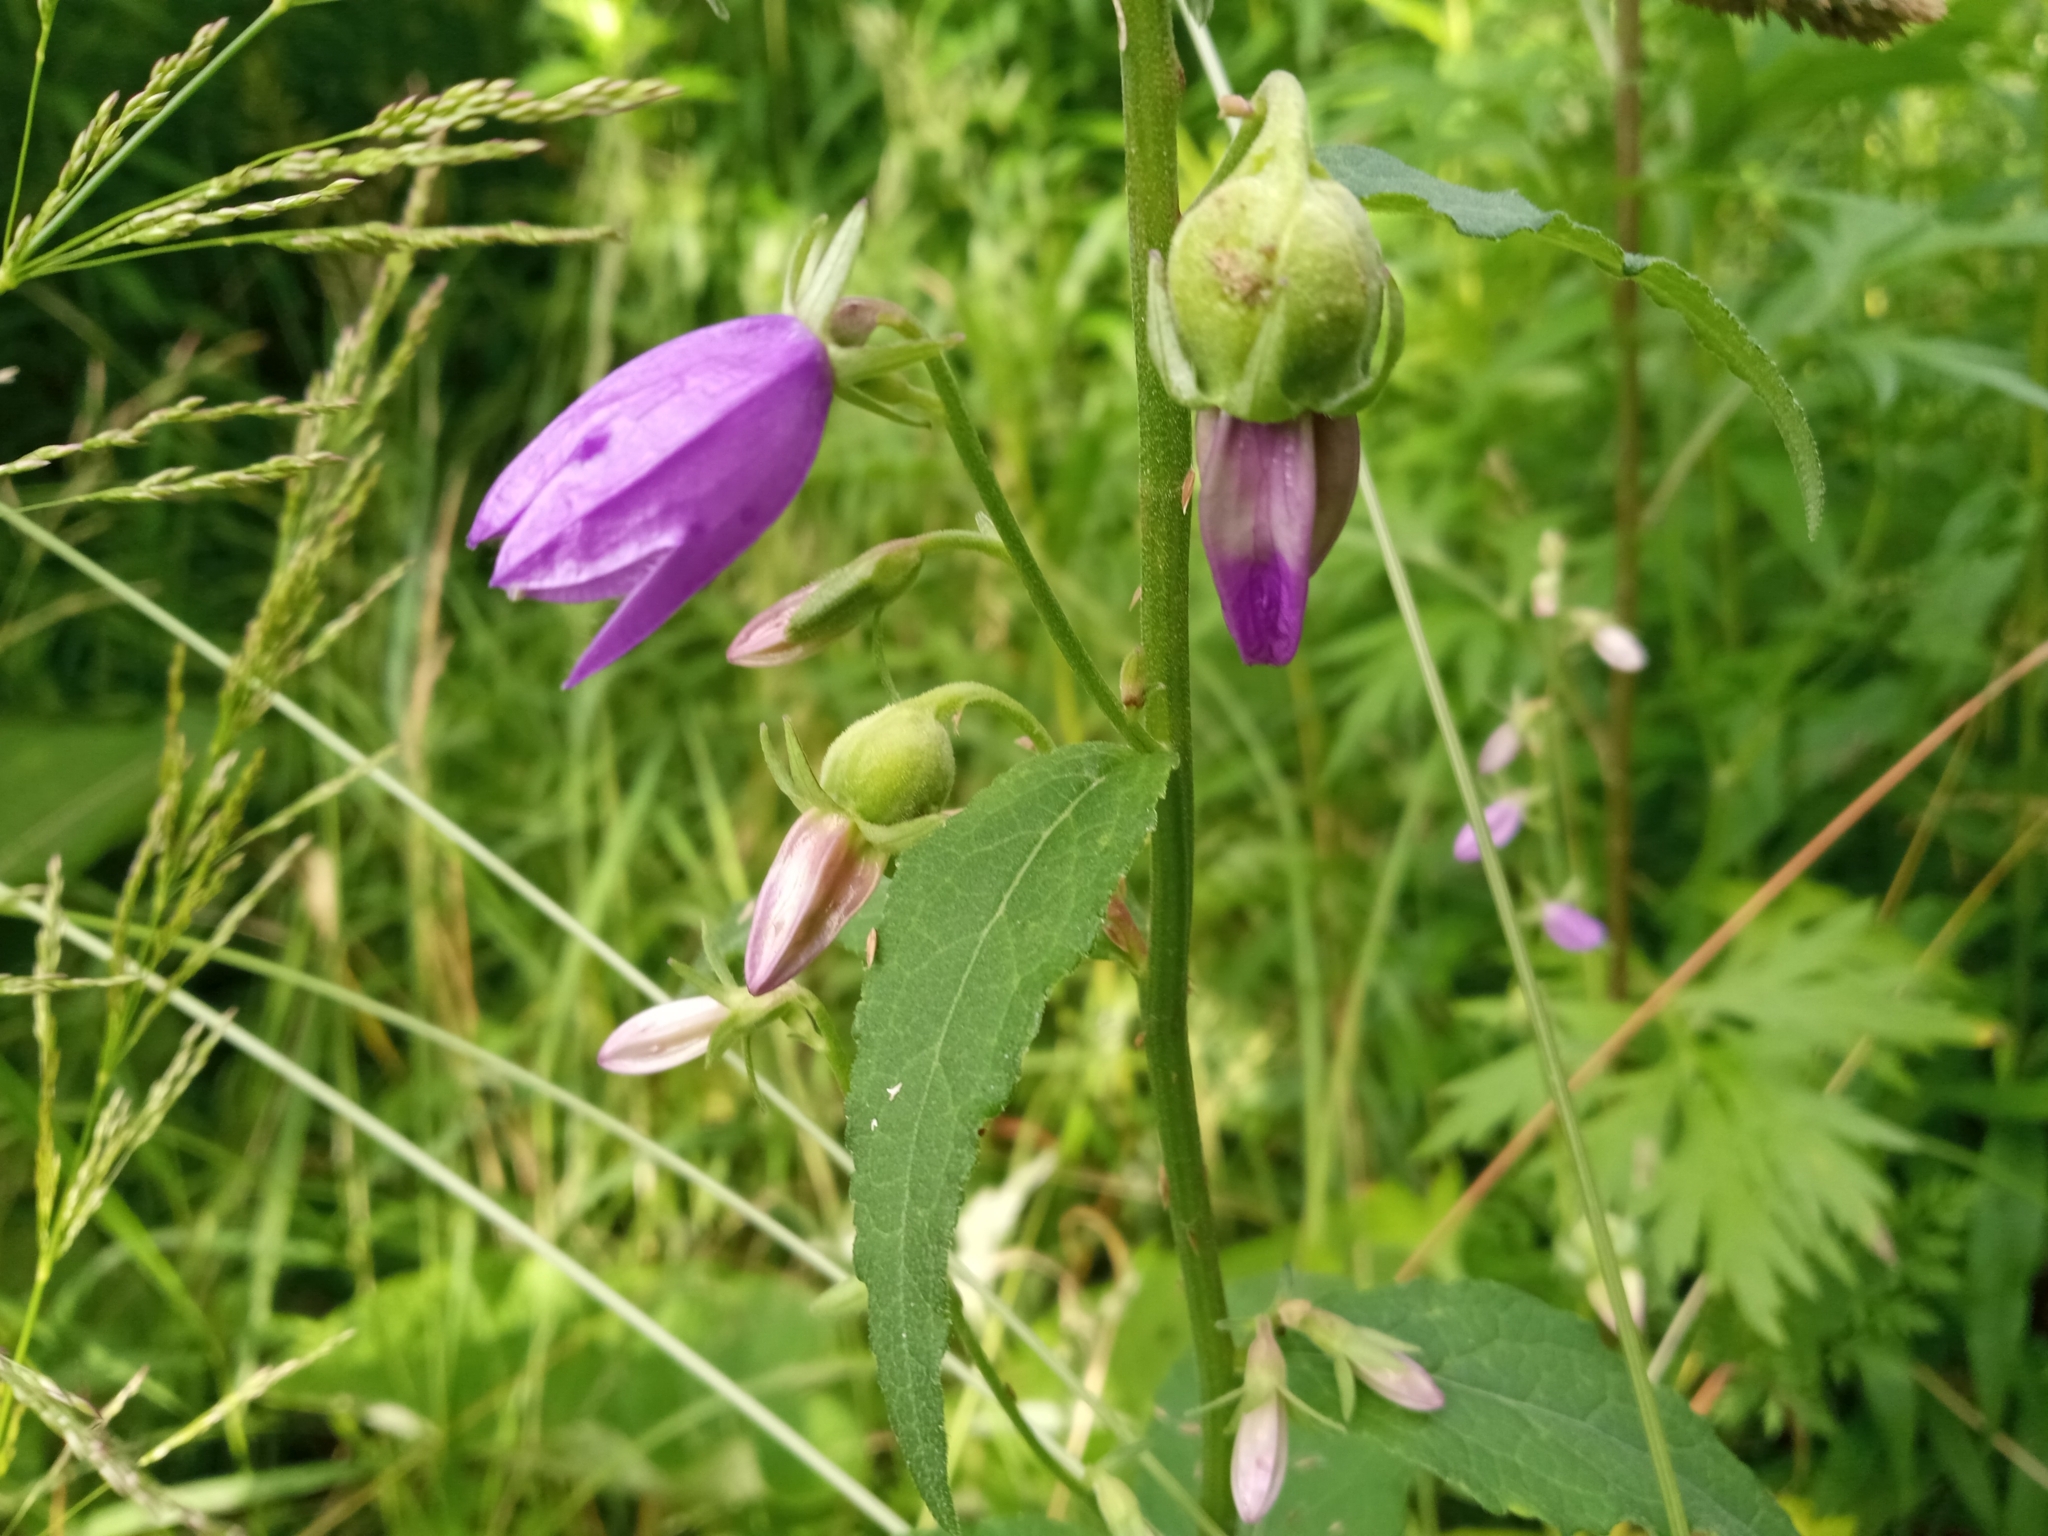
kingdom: Plantae
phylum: Tracheophyta
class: Magnoliopsida
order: Asterales
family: Campanulaceae
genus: Campanula
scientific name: Campanula rapunculoides
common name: Creeping bellflower
